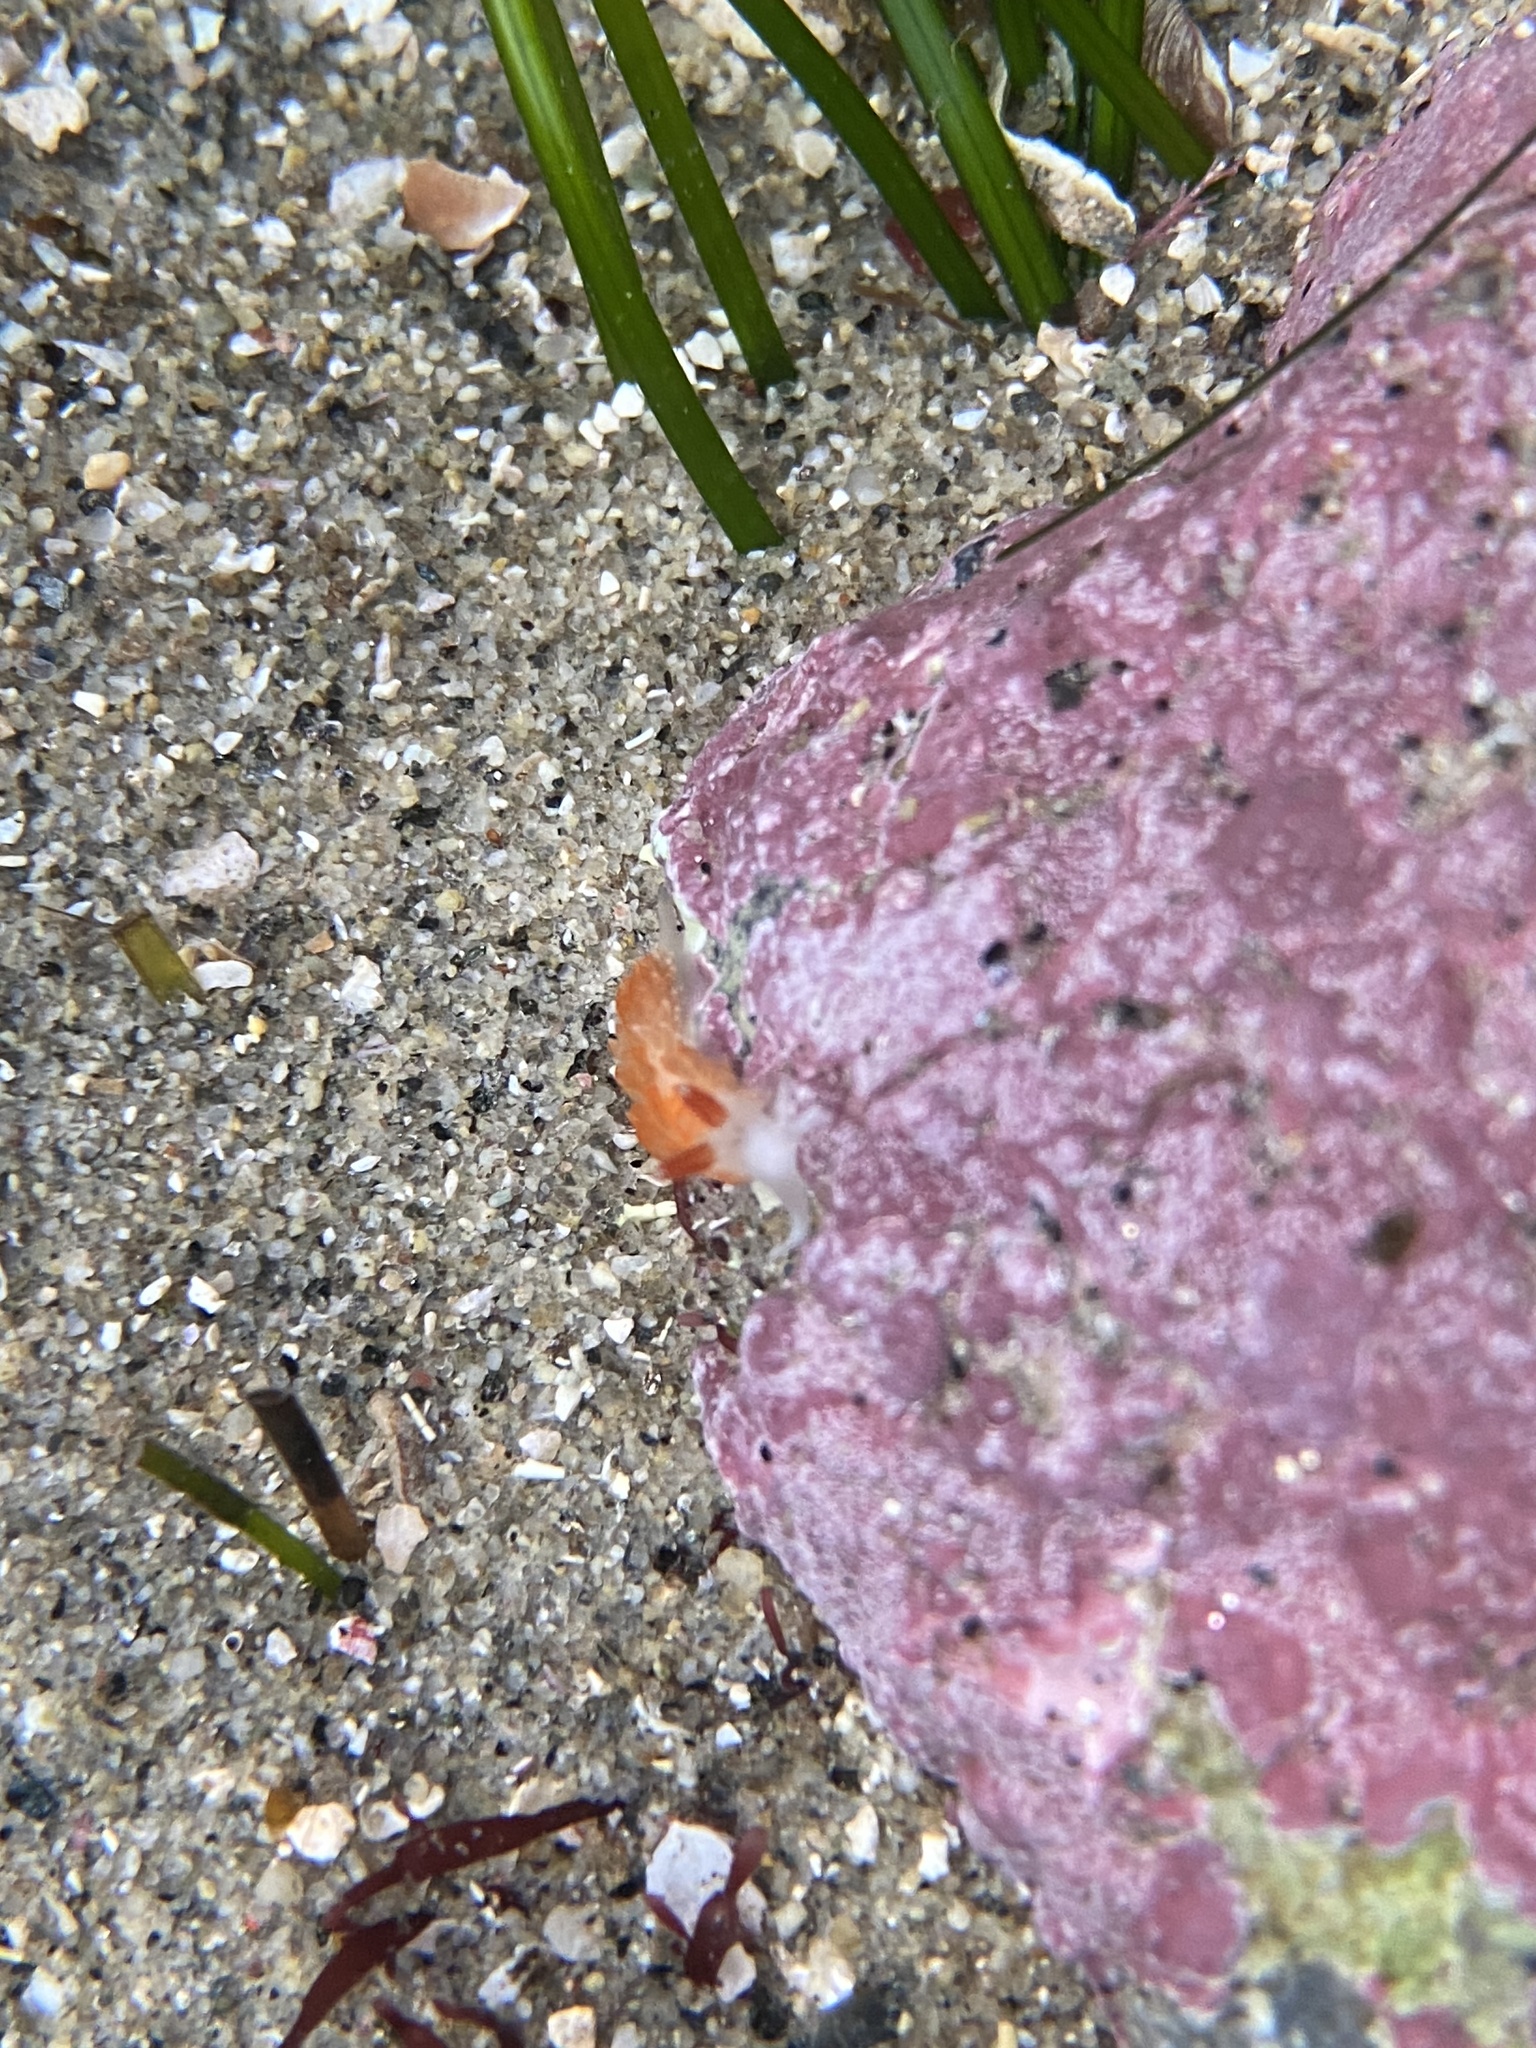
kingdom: Animalia
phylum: Mollusca
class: Gastropoda
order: Nudibranchia
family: Aeolidiidae
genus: Anteaeolidiella
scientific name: Anteaeolidiella oliviae
